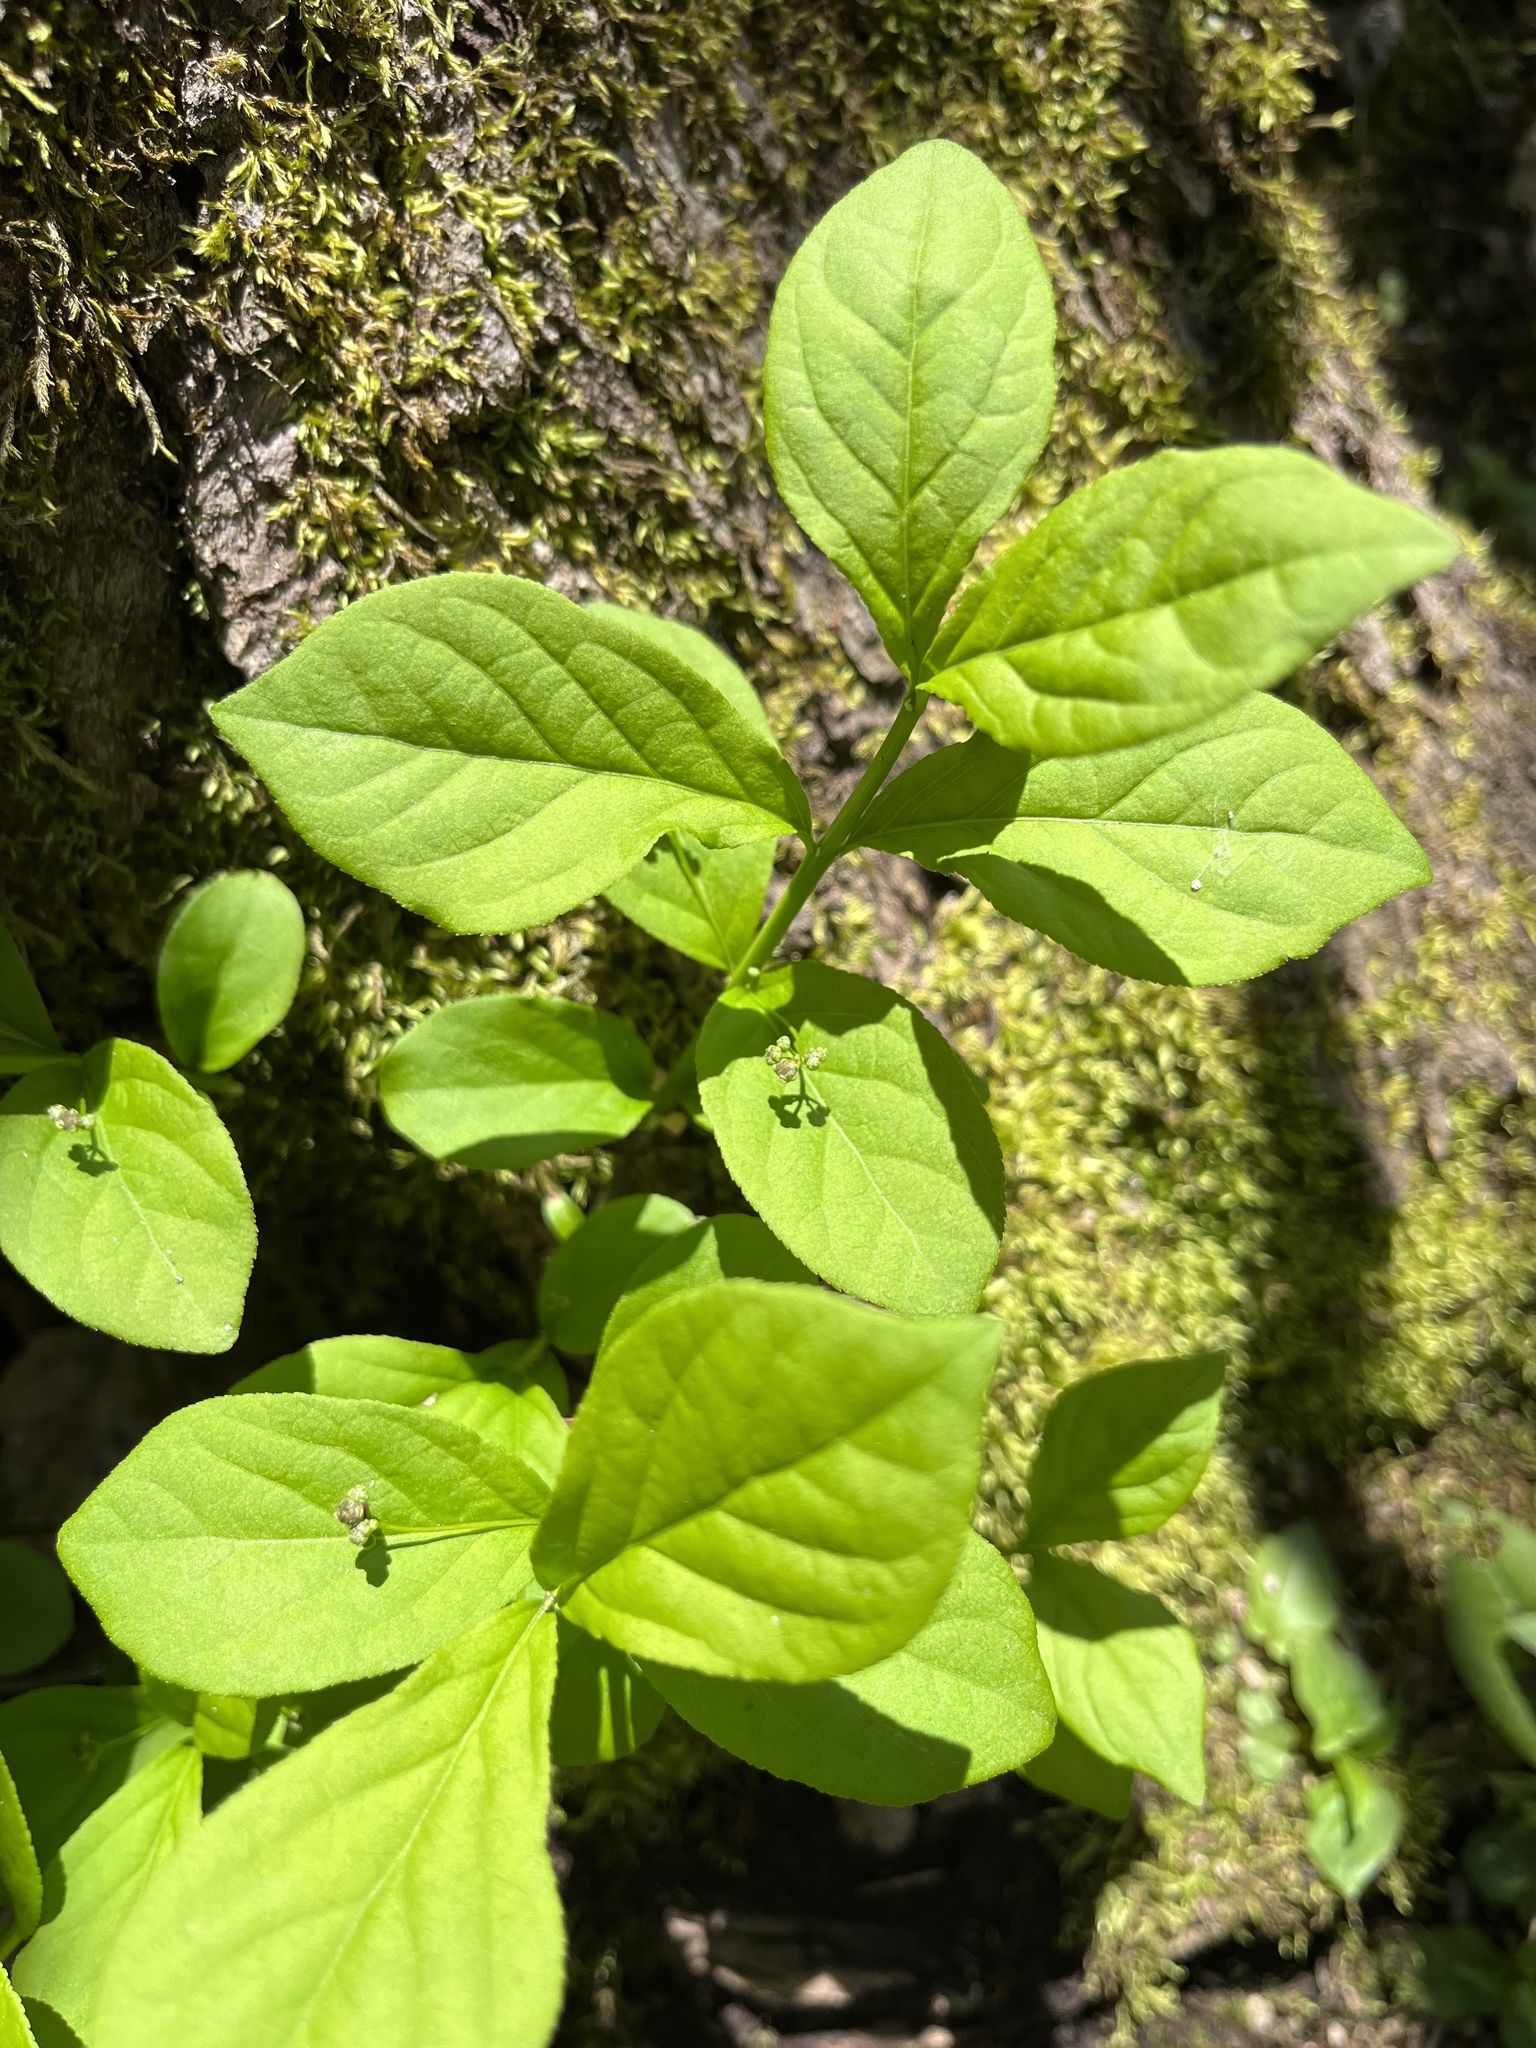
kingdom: Plantae
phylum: Tracheophyta
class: Magnoliopsida
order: Celastrales
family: Celastraceae
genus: Euonymus
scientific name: Euonymus obovatus
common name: Running strawberry-bush
